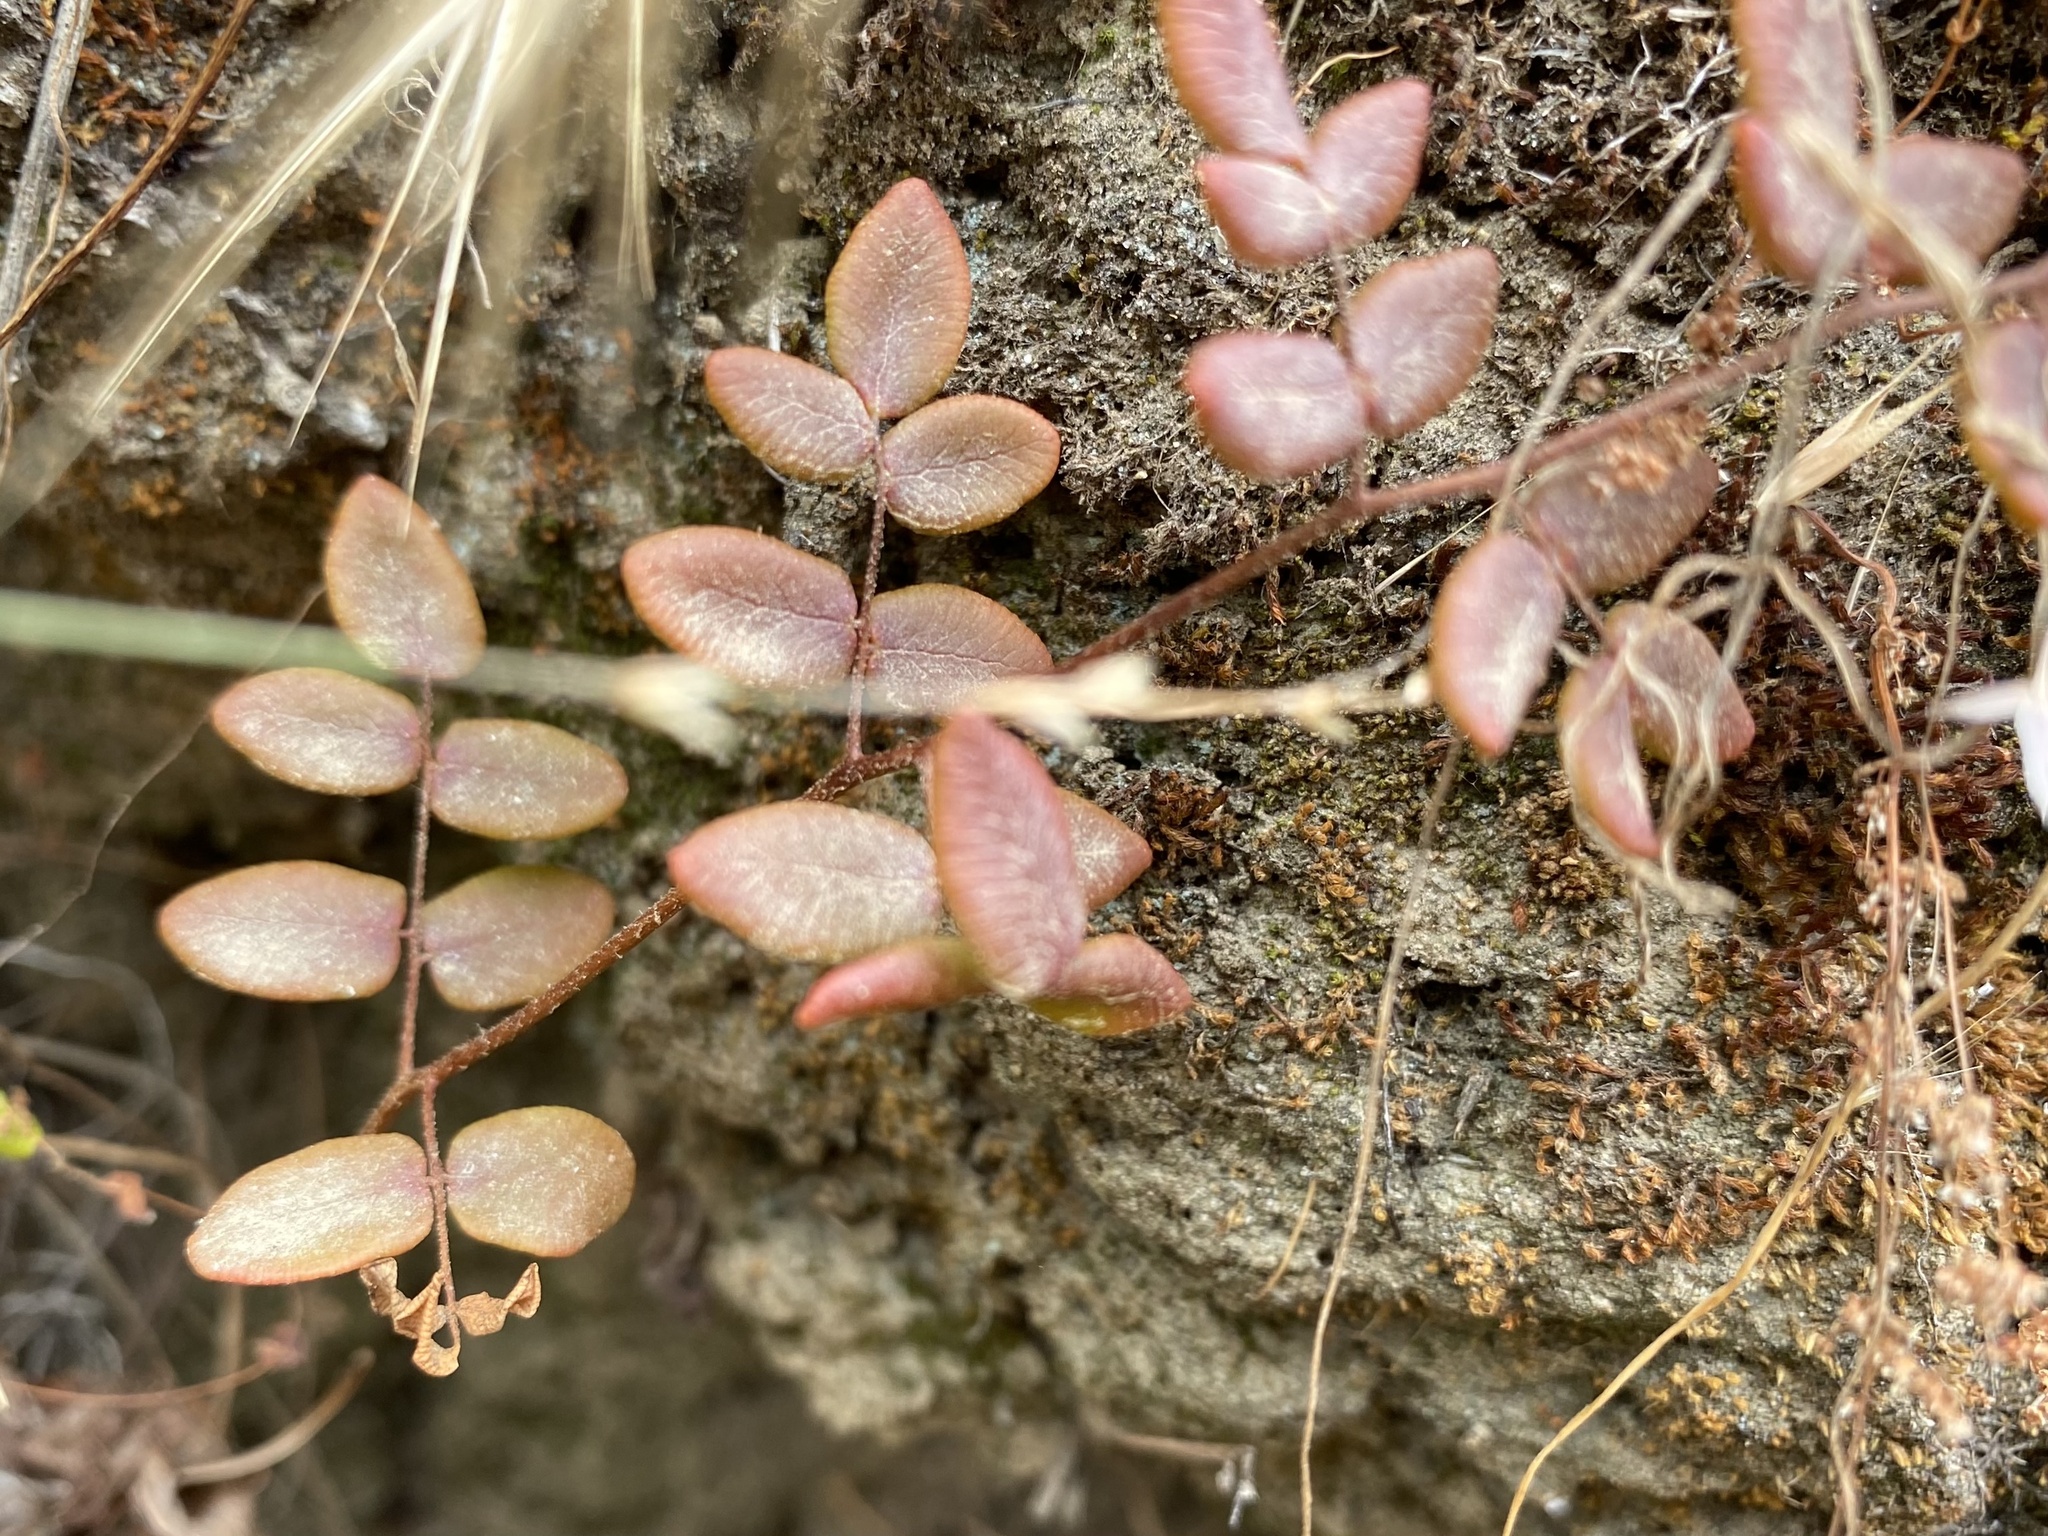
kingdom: Plantae
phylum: Tracheophyta
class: Polypodiopsida
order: Polypodiales
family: Pteridaceae
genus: Pellaea
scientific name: Pellaea andromedifolia
